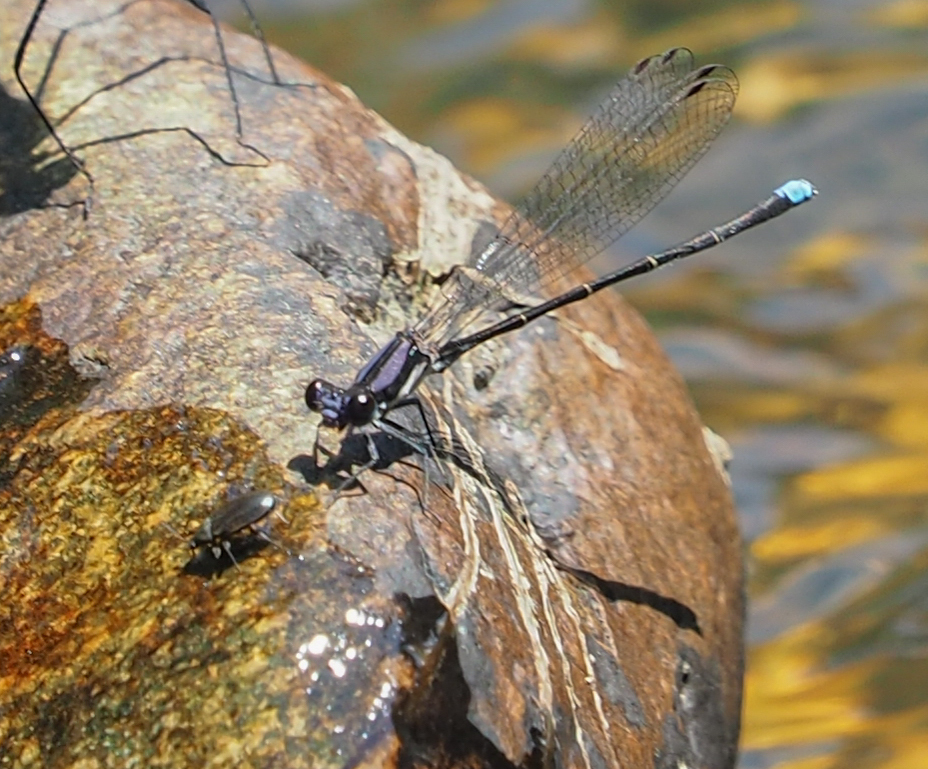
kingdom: Animalia
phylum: Arthropoda
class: Insecta
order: Odonata
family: Coenagrionidae
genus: Argia
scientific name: Argia tibialis
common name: Blue-tipped dancer
